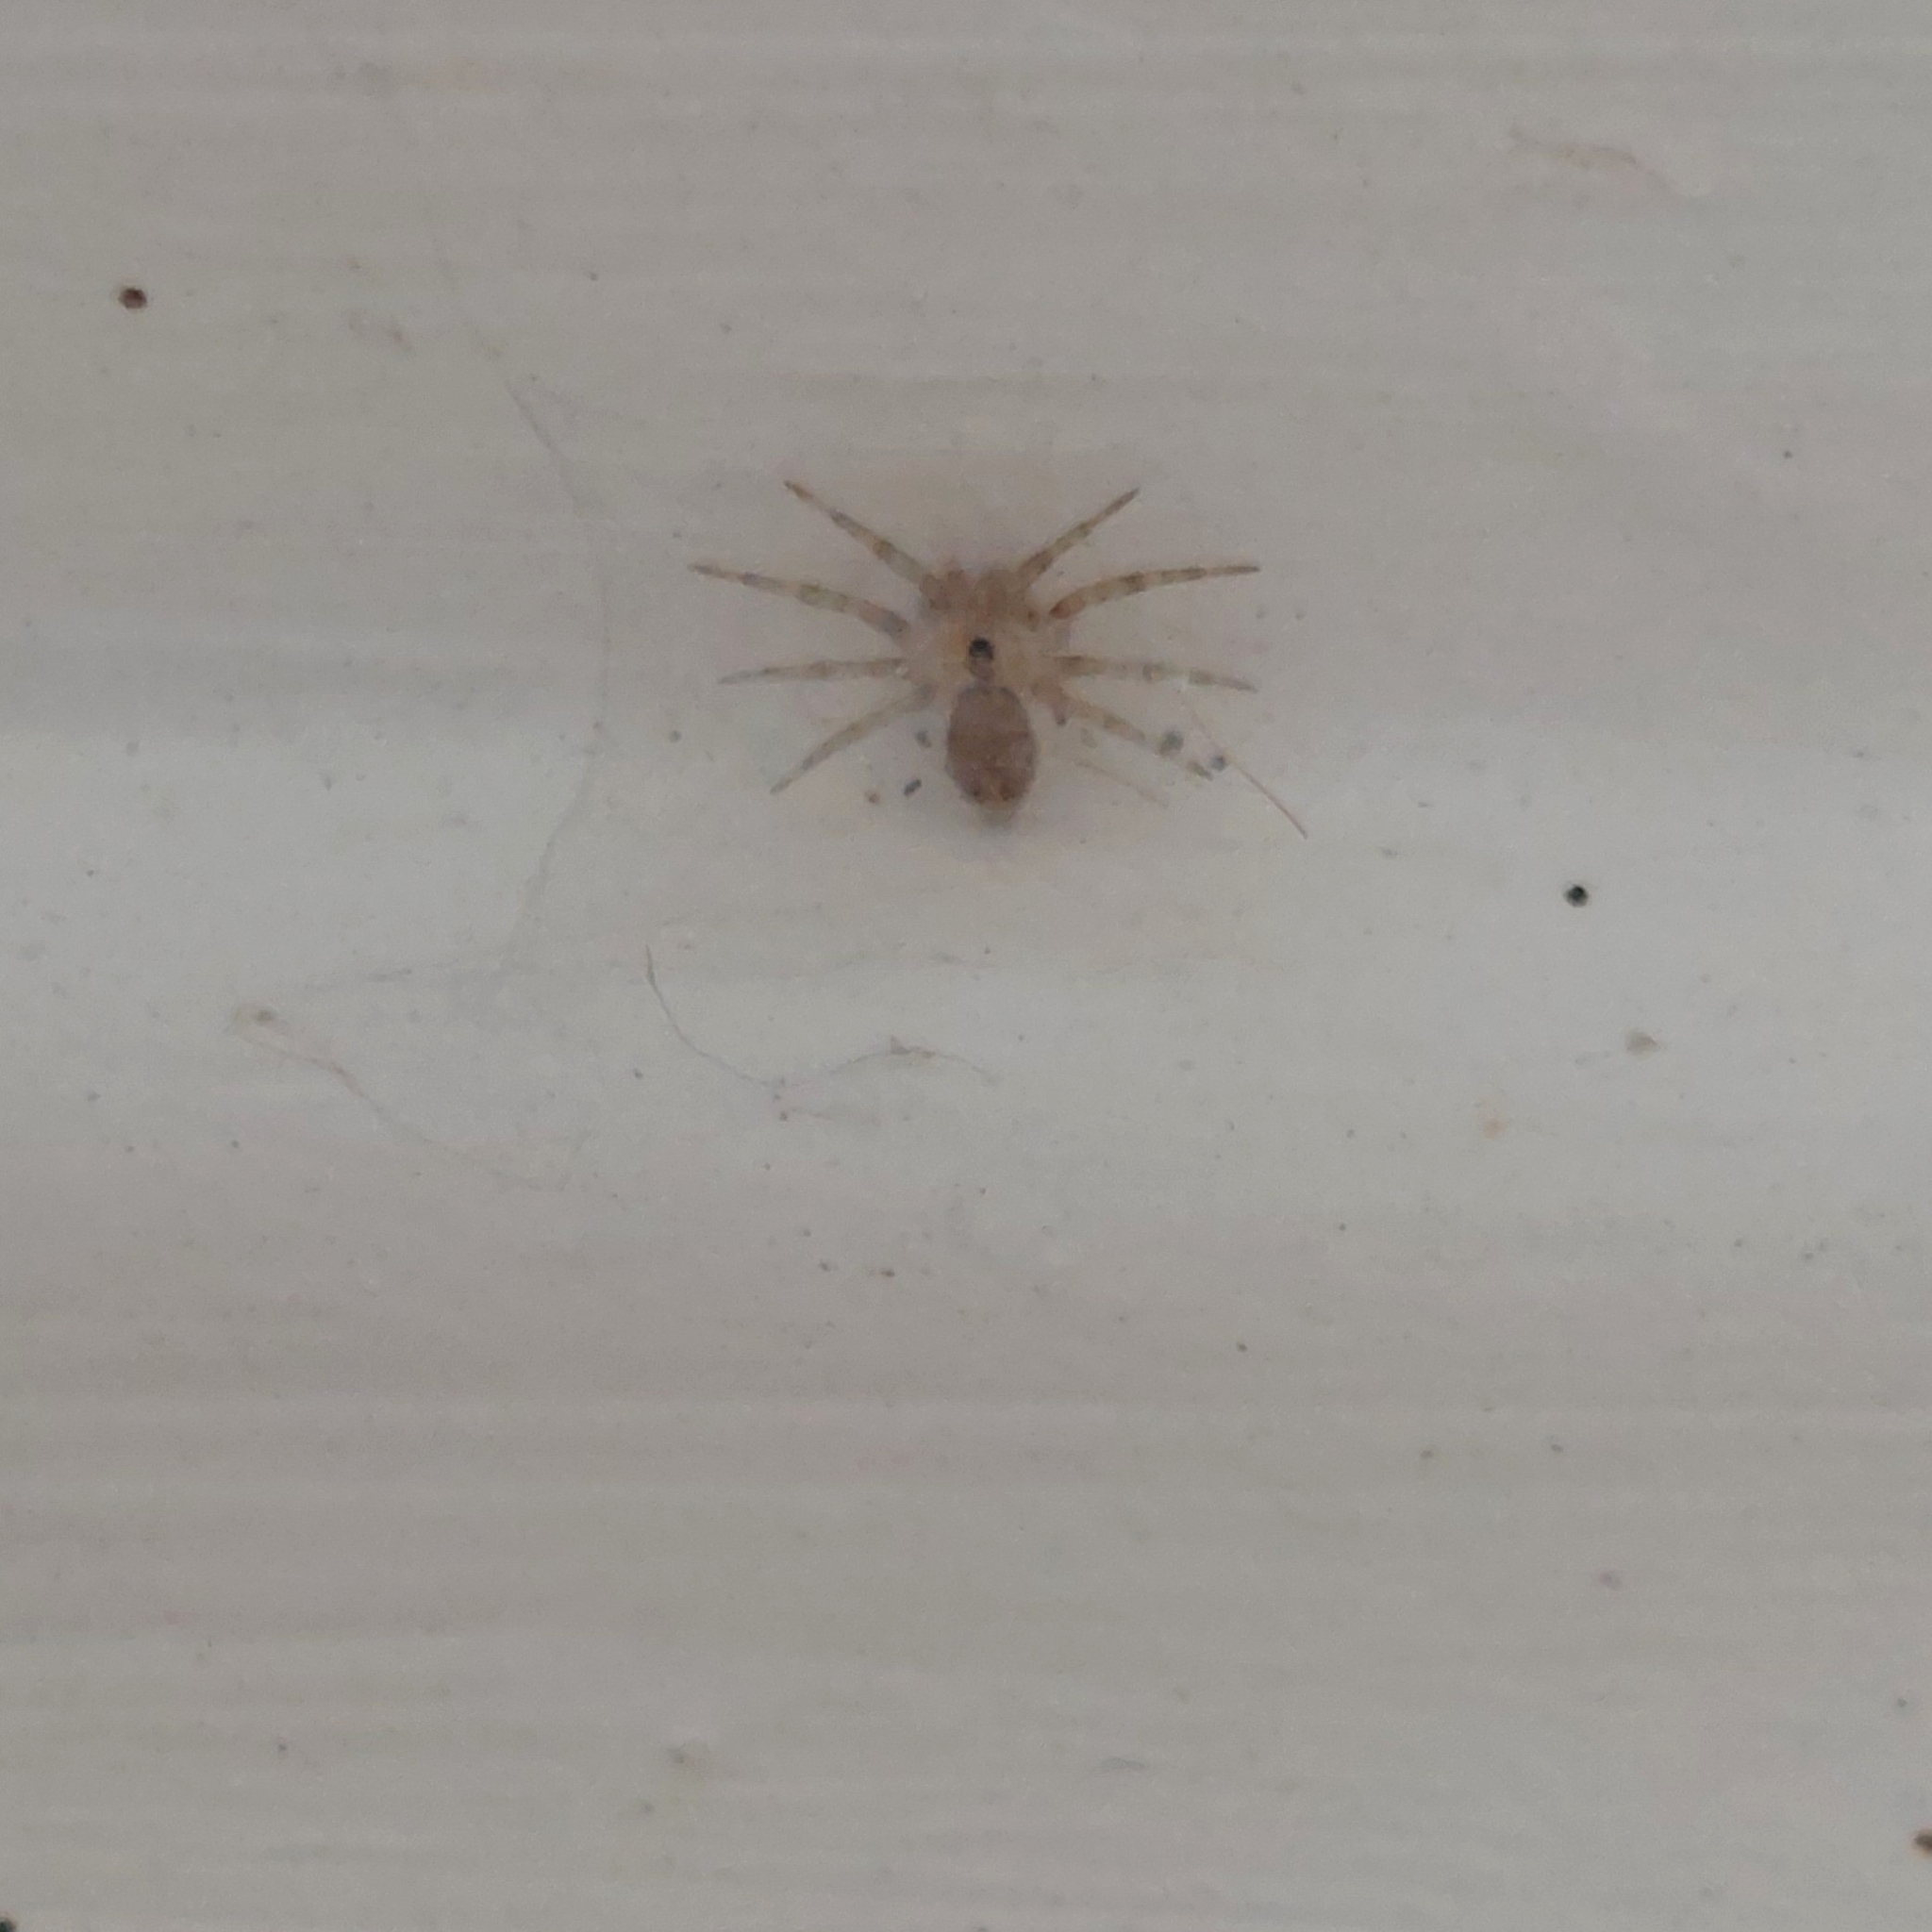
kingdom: Animalia
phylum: Arthropoda
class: Arachnida
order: Araneae
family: Oecobiidae
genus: Oecobius
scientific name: Oecobius navus
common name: Flatmesh weaver
